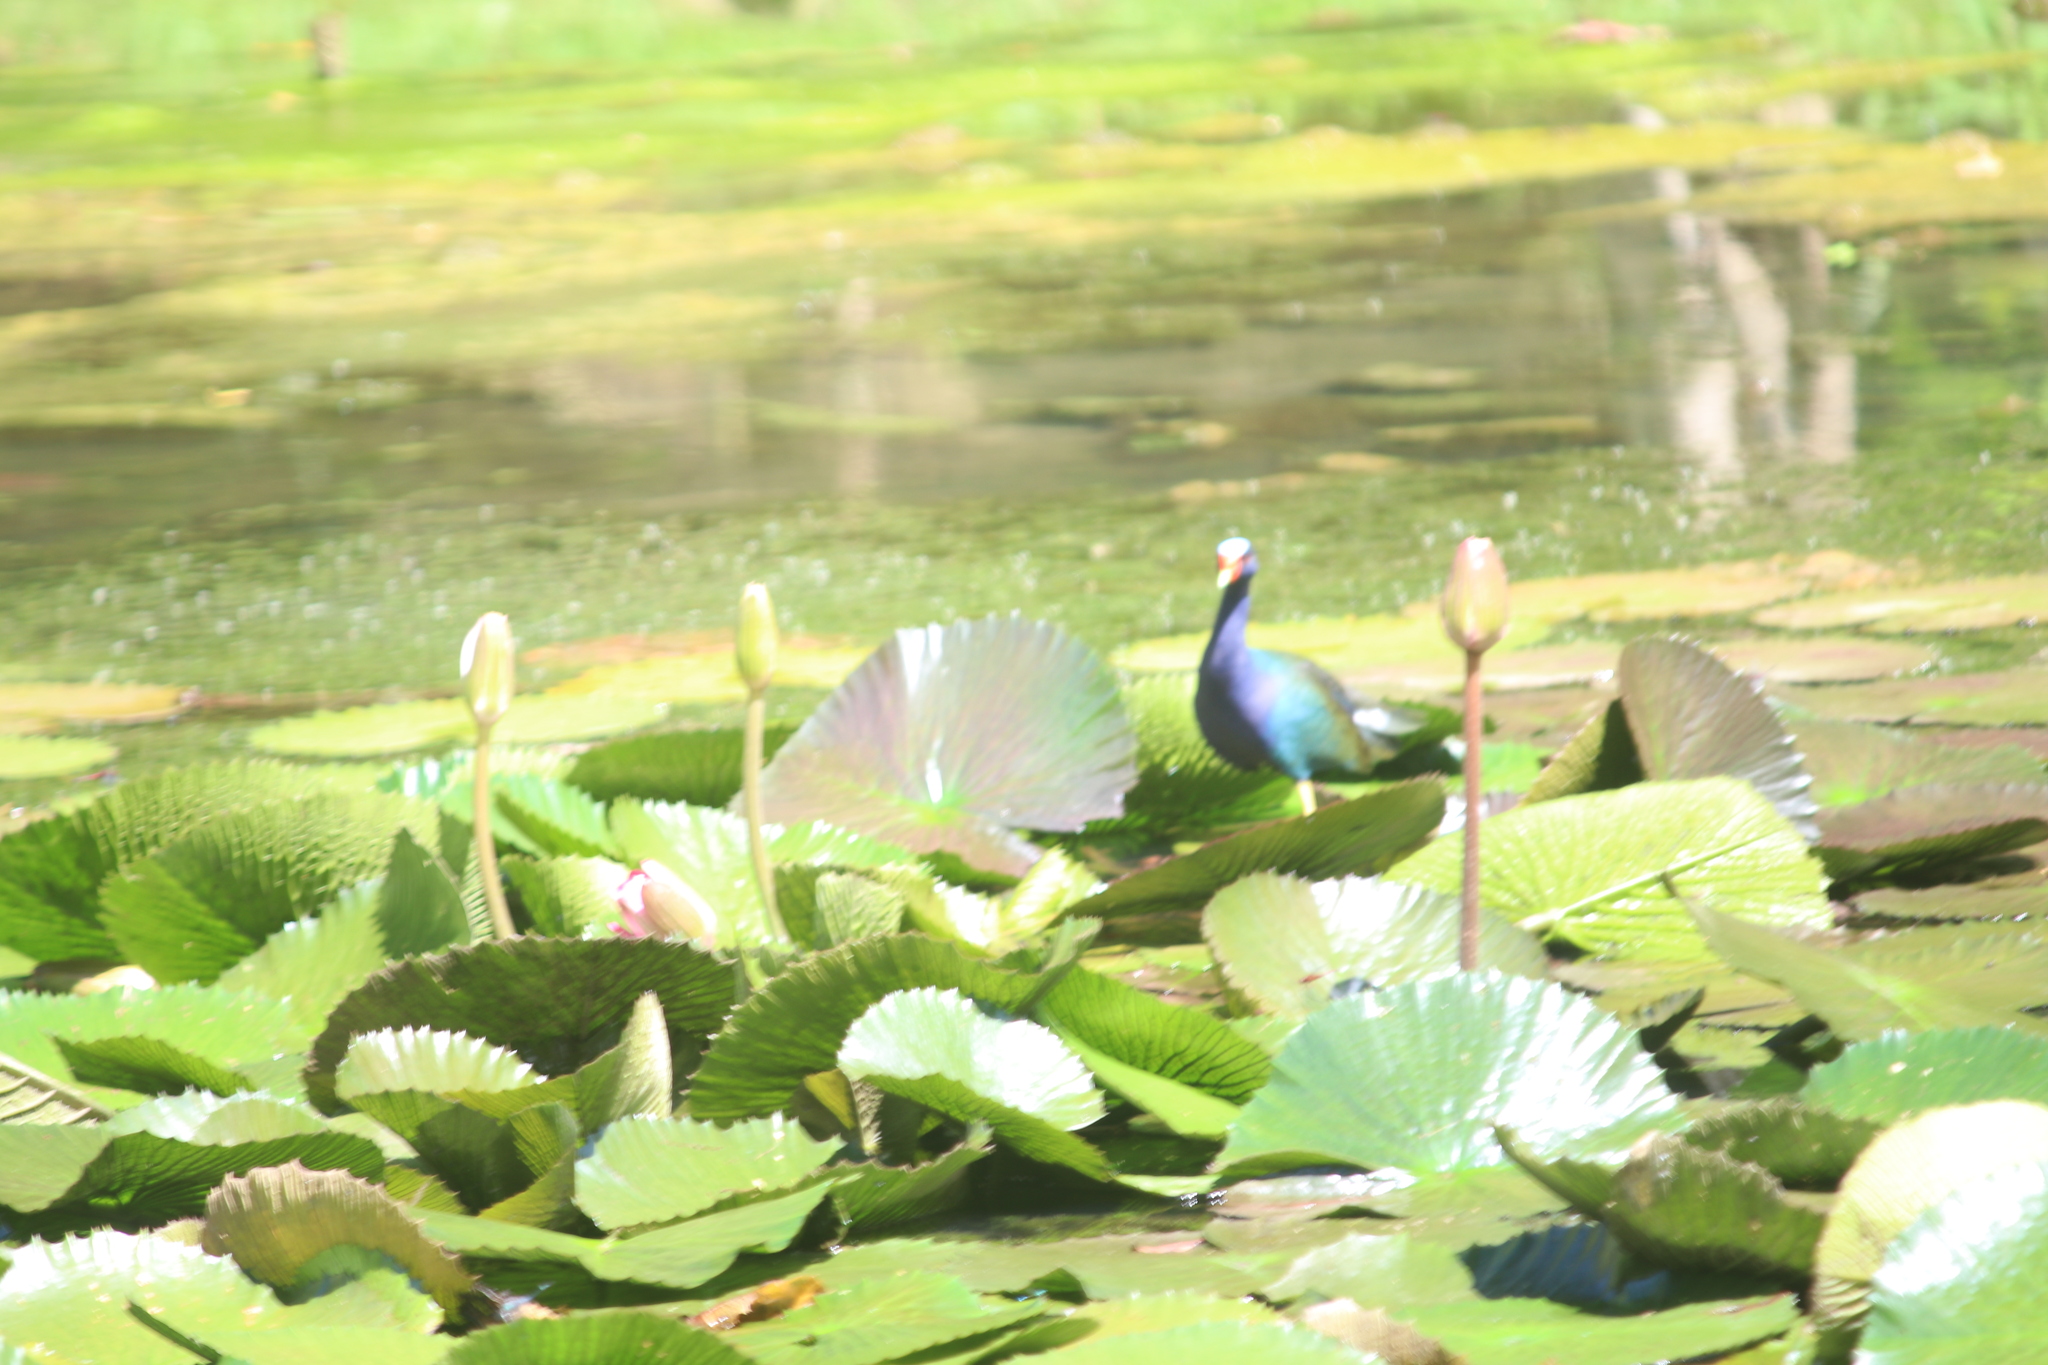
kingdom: Animalia
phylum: Chordata
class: Aves
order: Gruiformes
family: Rallidae
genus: Porphyrio
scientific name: Porphyrio martinica
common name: Purple gallinule
